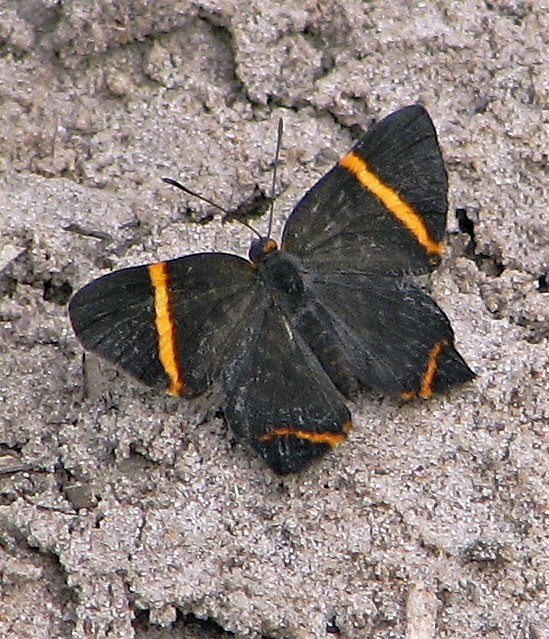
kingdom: Animalia
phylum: Arthropoda
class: Insecta
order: Lepidoptera
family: Riodinidae
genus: Riodina
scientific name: Riodina lysippoides
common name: Little dancer metalmark
